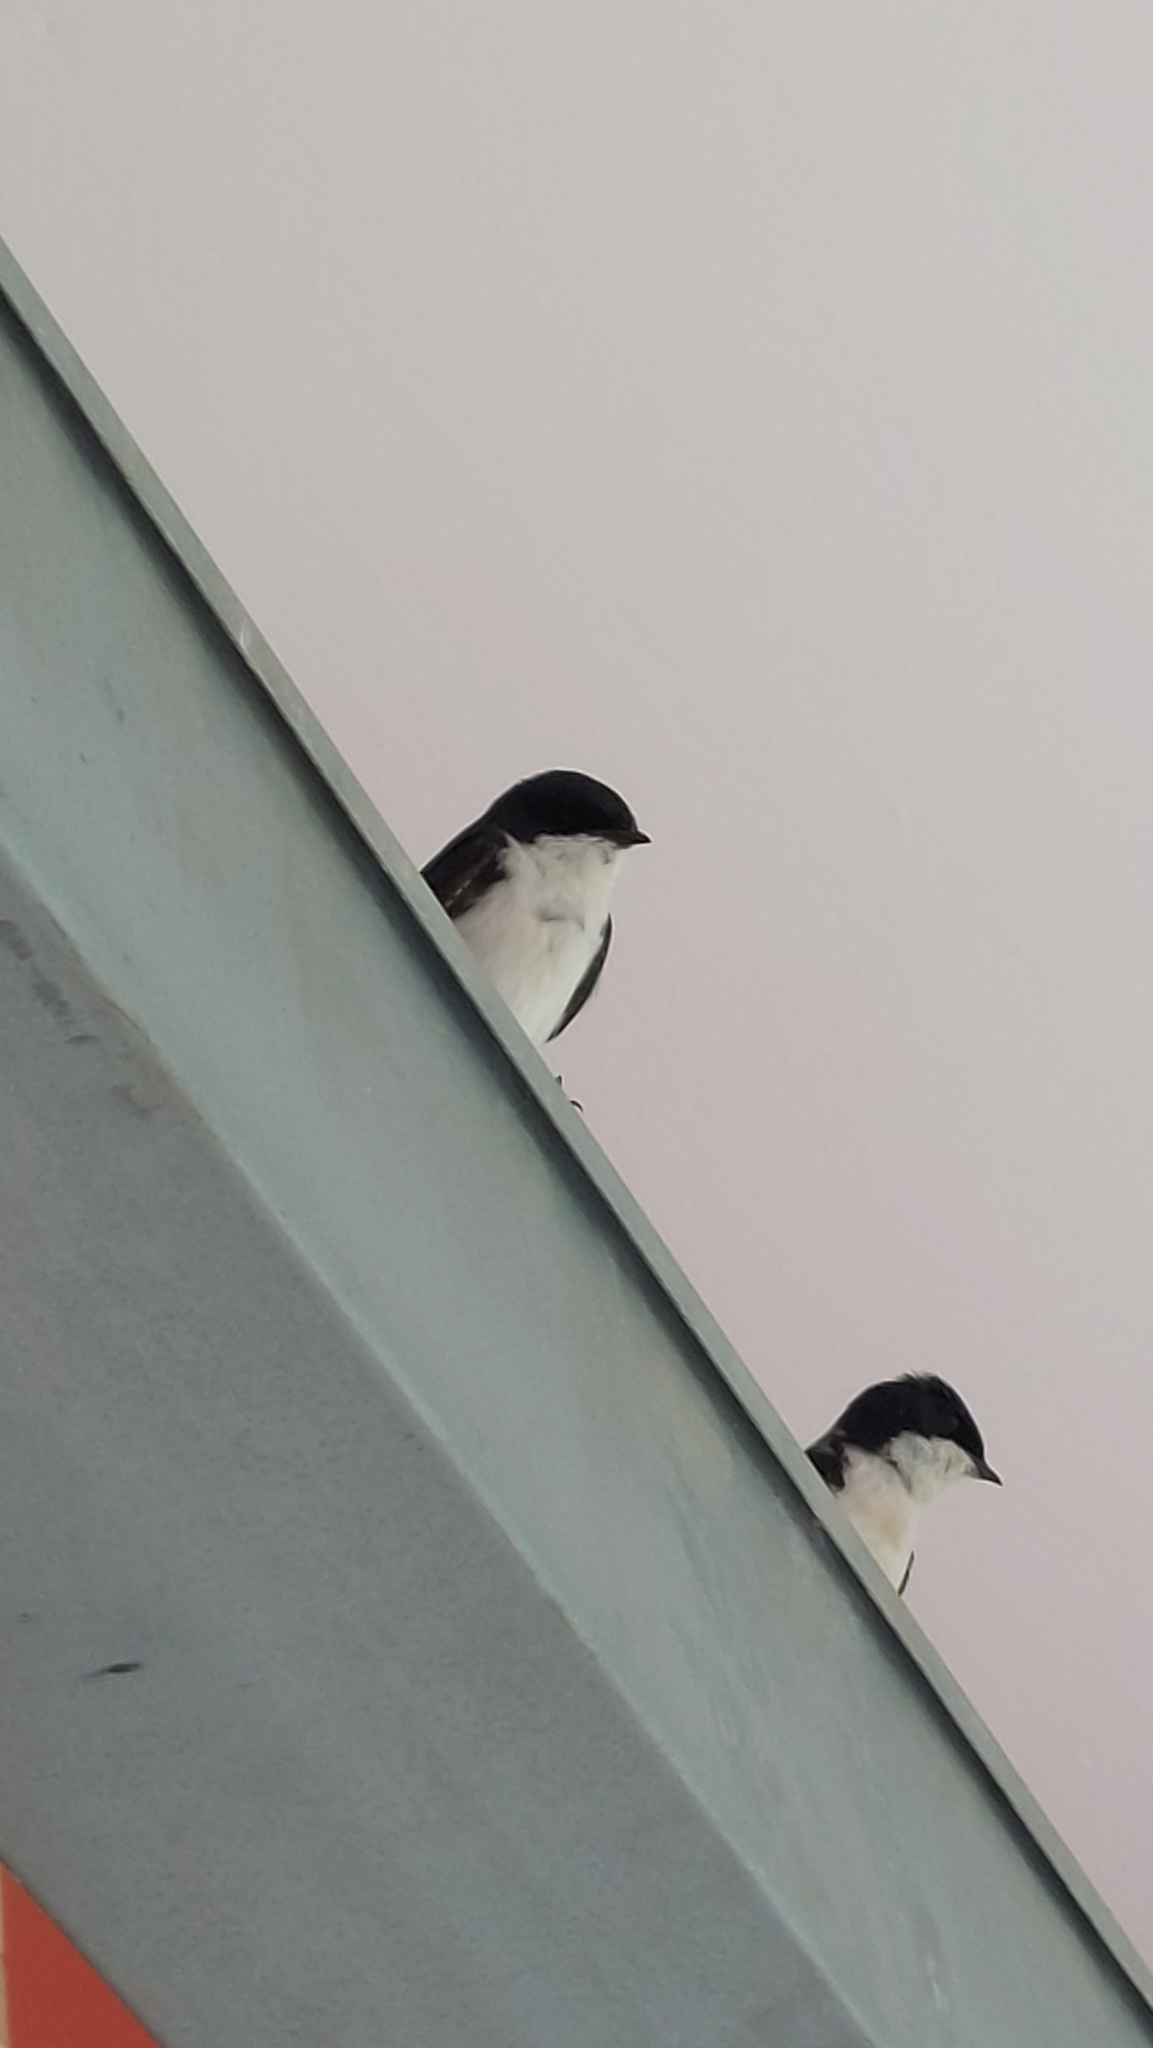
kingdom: Animalia
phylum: Chordata
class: Aves
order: Passeriformes
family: Hirundinidae
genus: Notiochelidon
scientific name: Notiochelidon cyanoleuca
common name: Blue-and-white swallow
